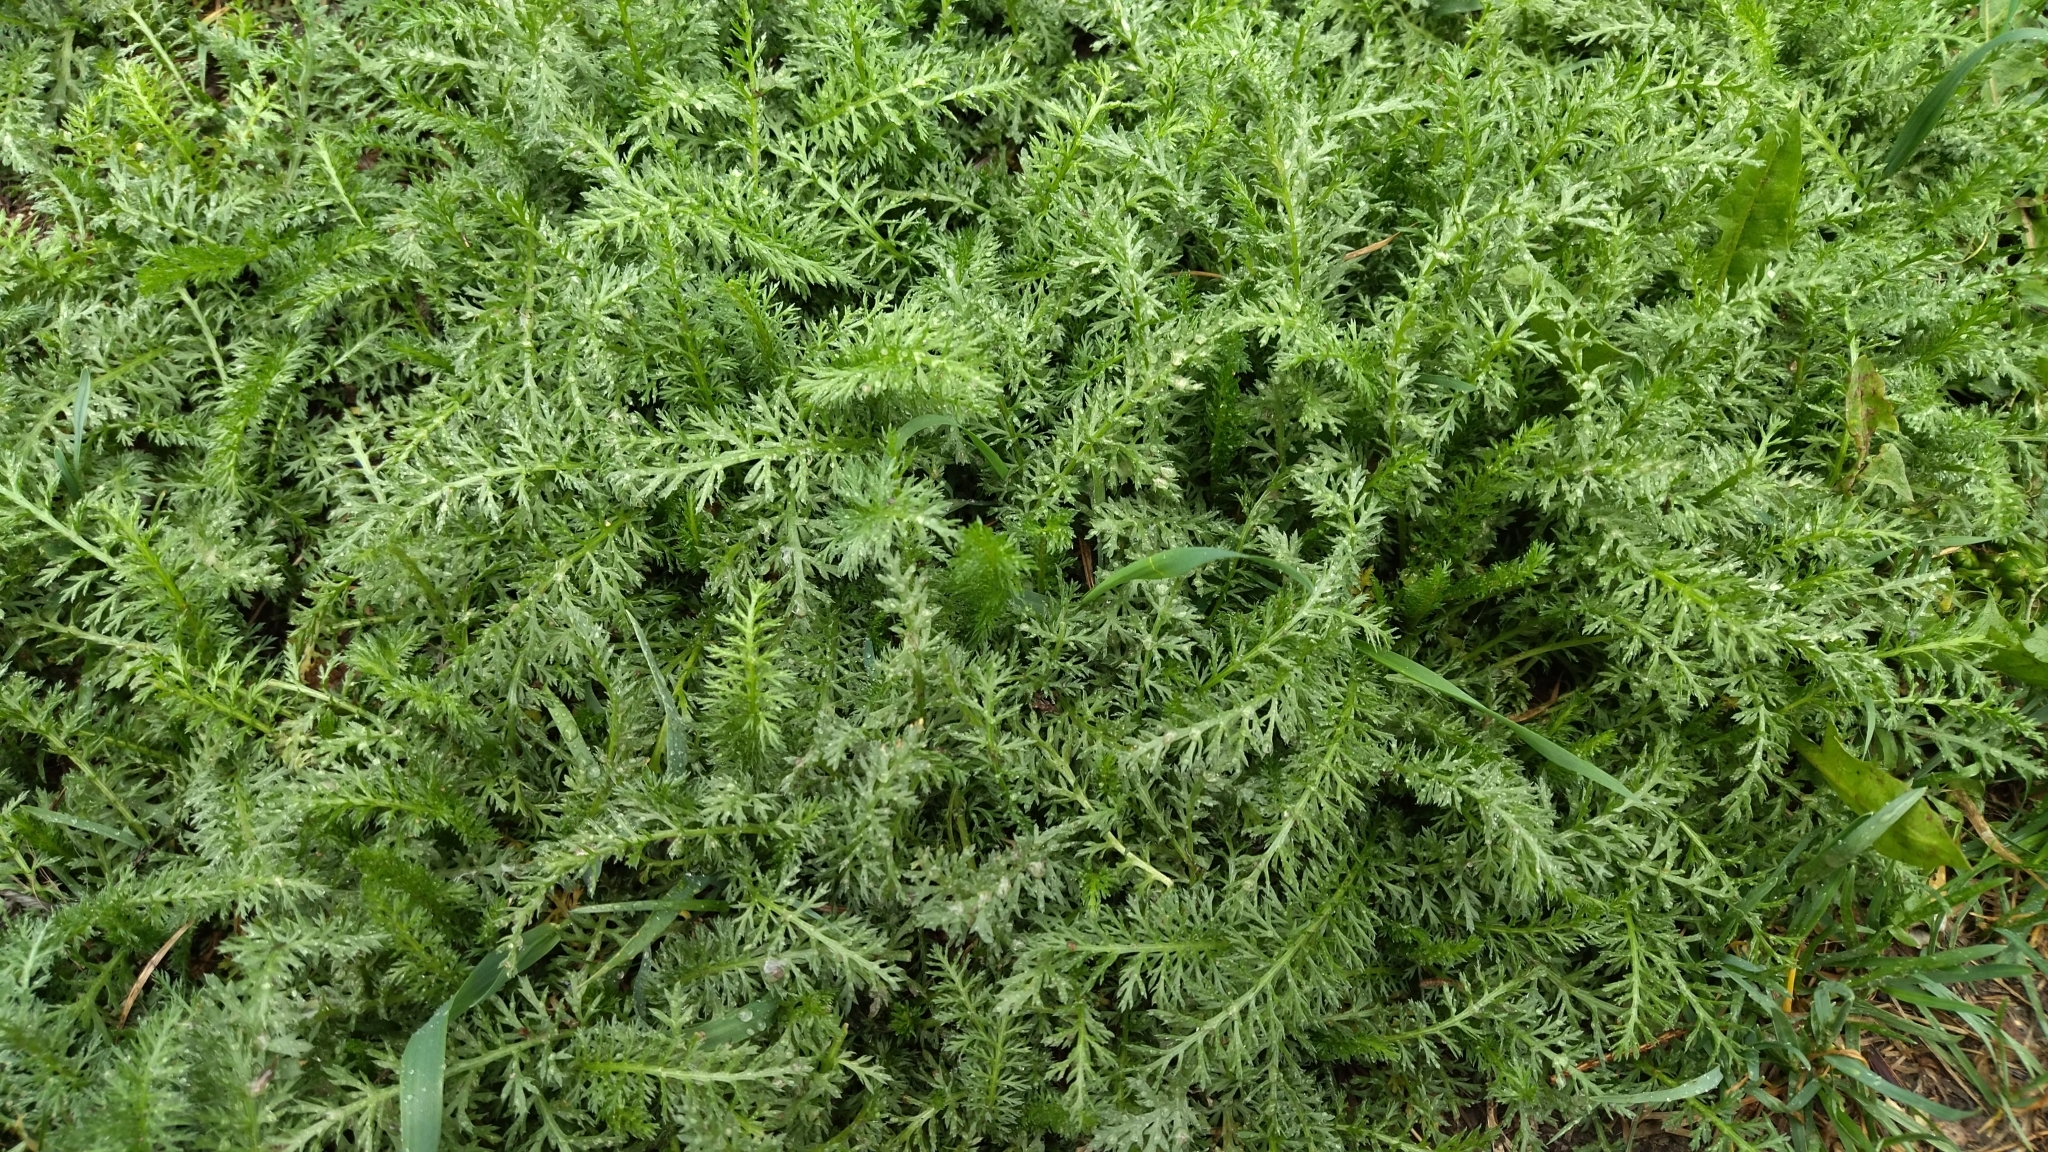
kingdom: Plantae
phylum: Tracheophyta
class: Magnoliopsida
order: Asterales
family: Asteraceae
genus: Achillea
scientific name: Achillea millefolium
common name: Yarrow
